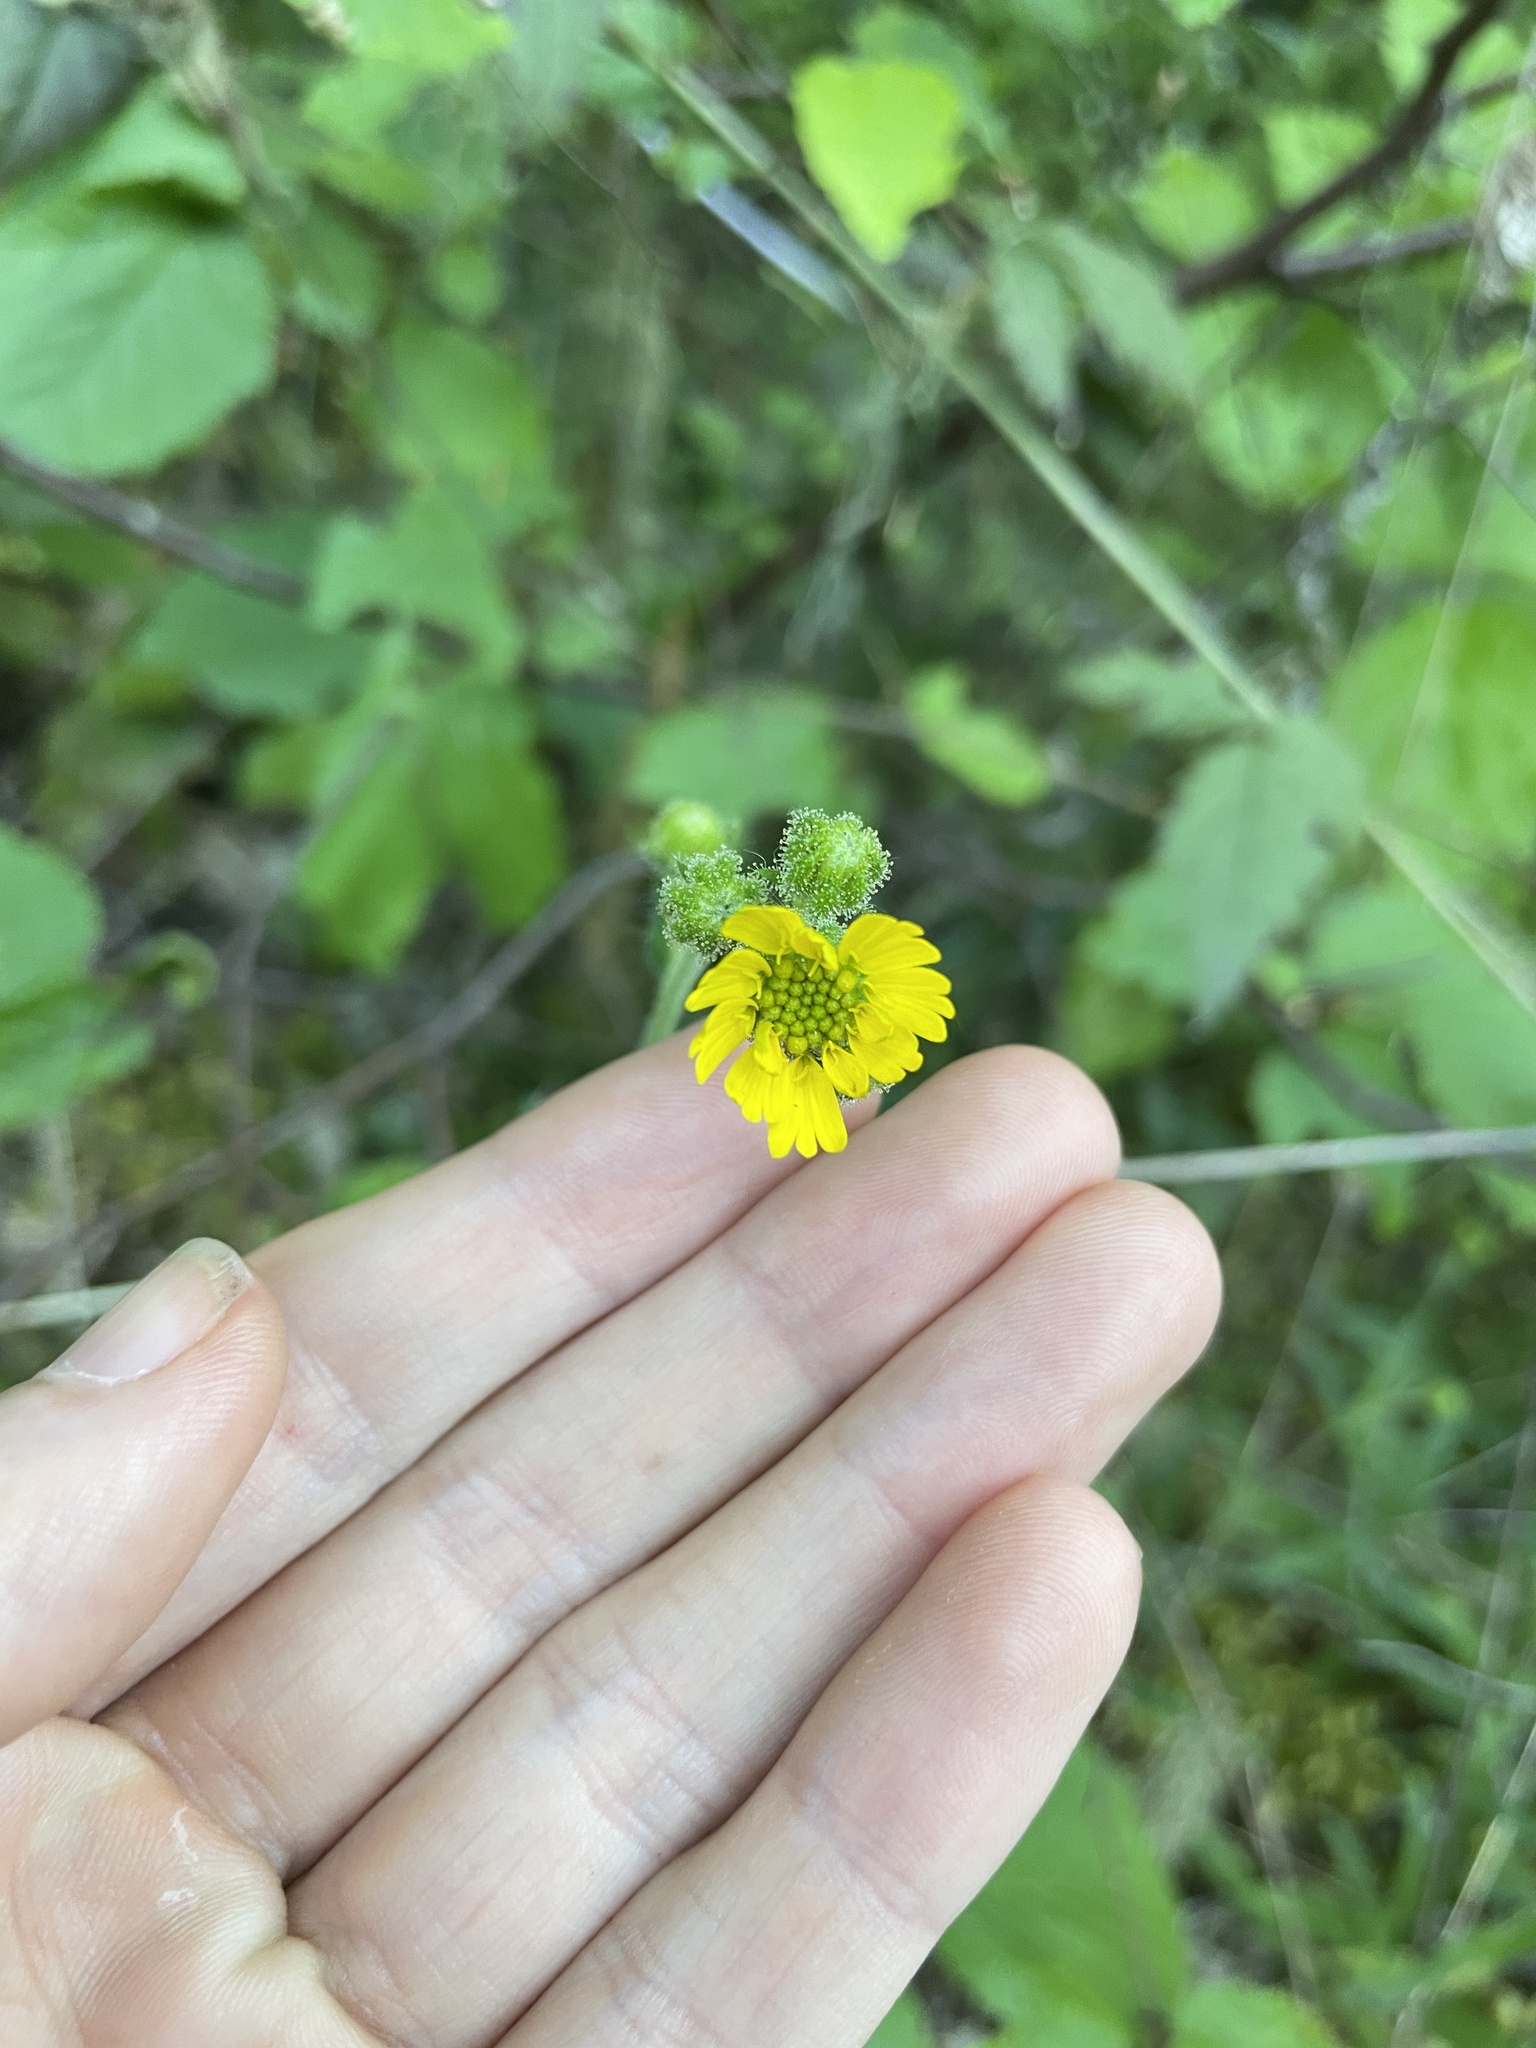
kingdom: Plantae
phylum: Tracheophyta
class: Magnoliopsida
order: Asterales
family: Asteraceae
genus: Anisocarpus
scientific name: Anisocarpus madioides
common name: Woodland madia
